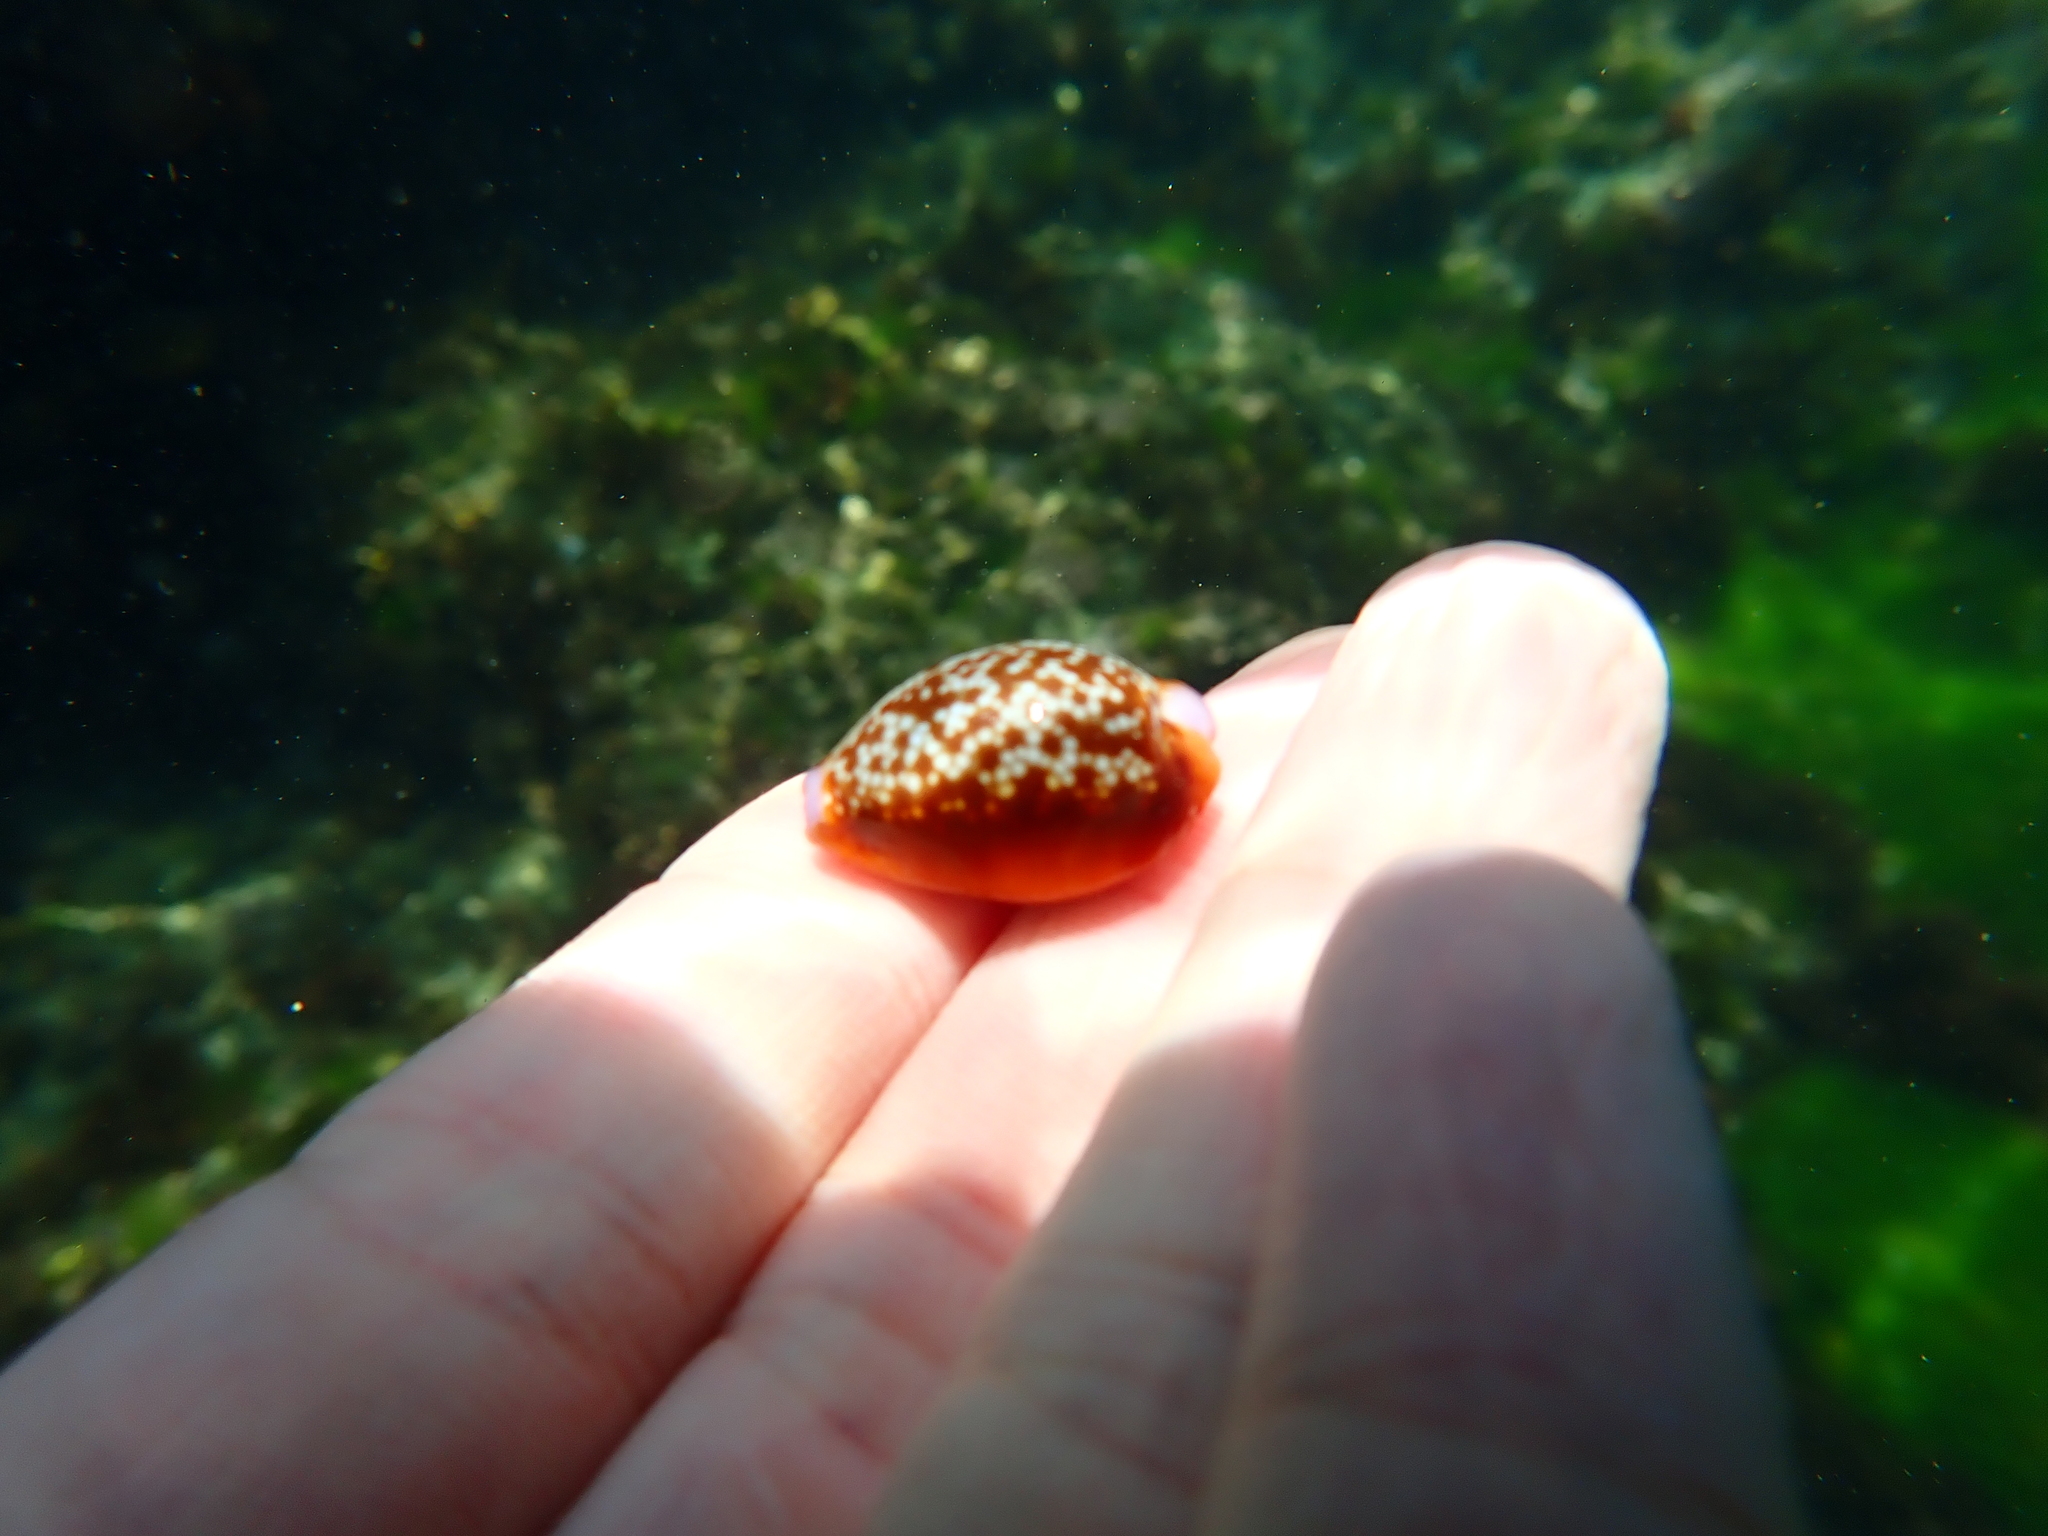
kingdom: Animalia
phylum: Mollusca
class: Gastropoda
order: Littorinimorpha
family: Cypraeidae
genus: Naria
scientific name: Naria helvola
